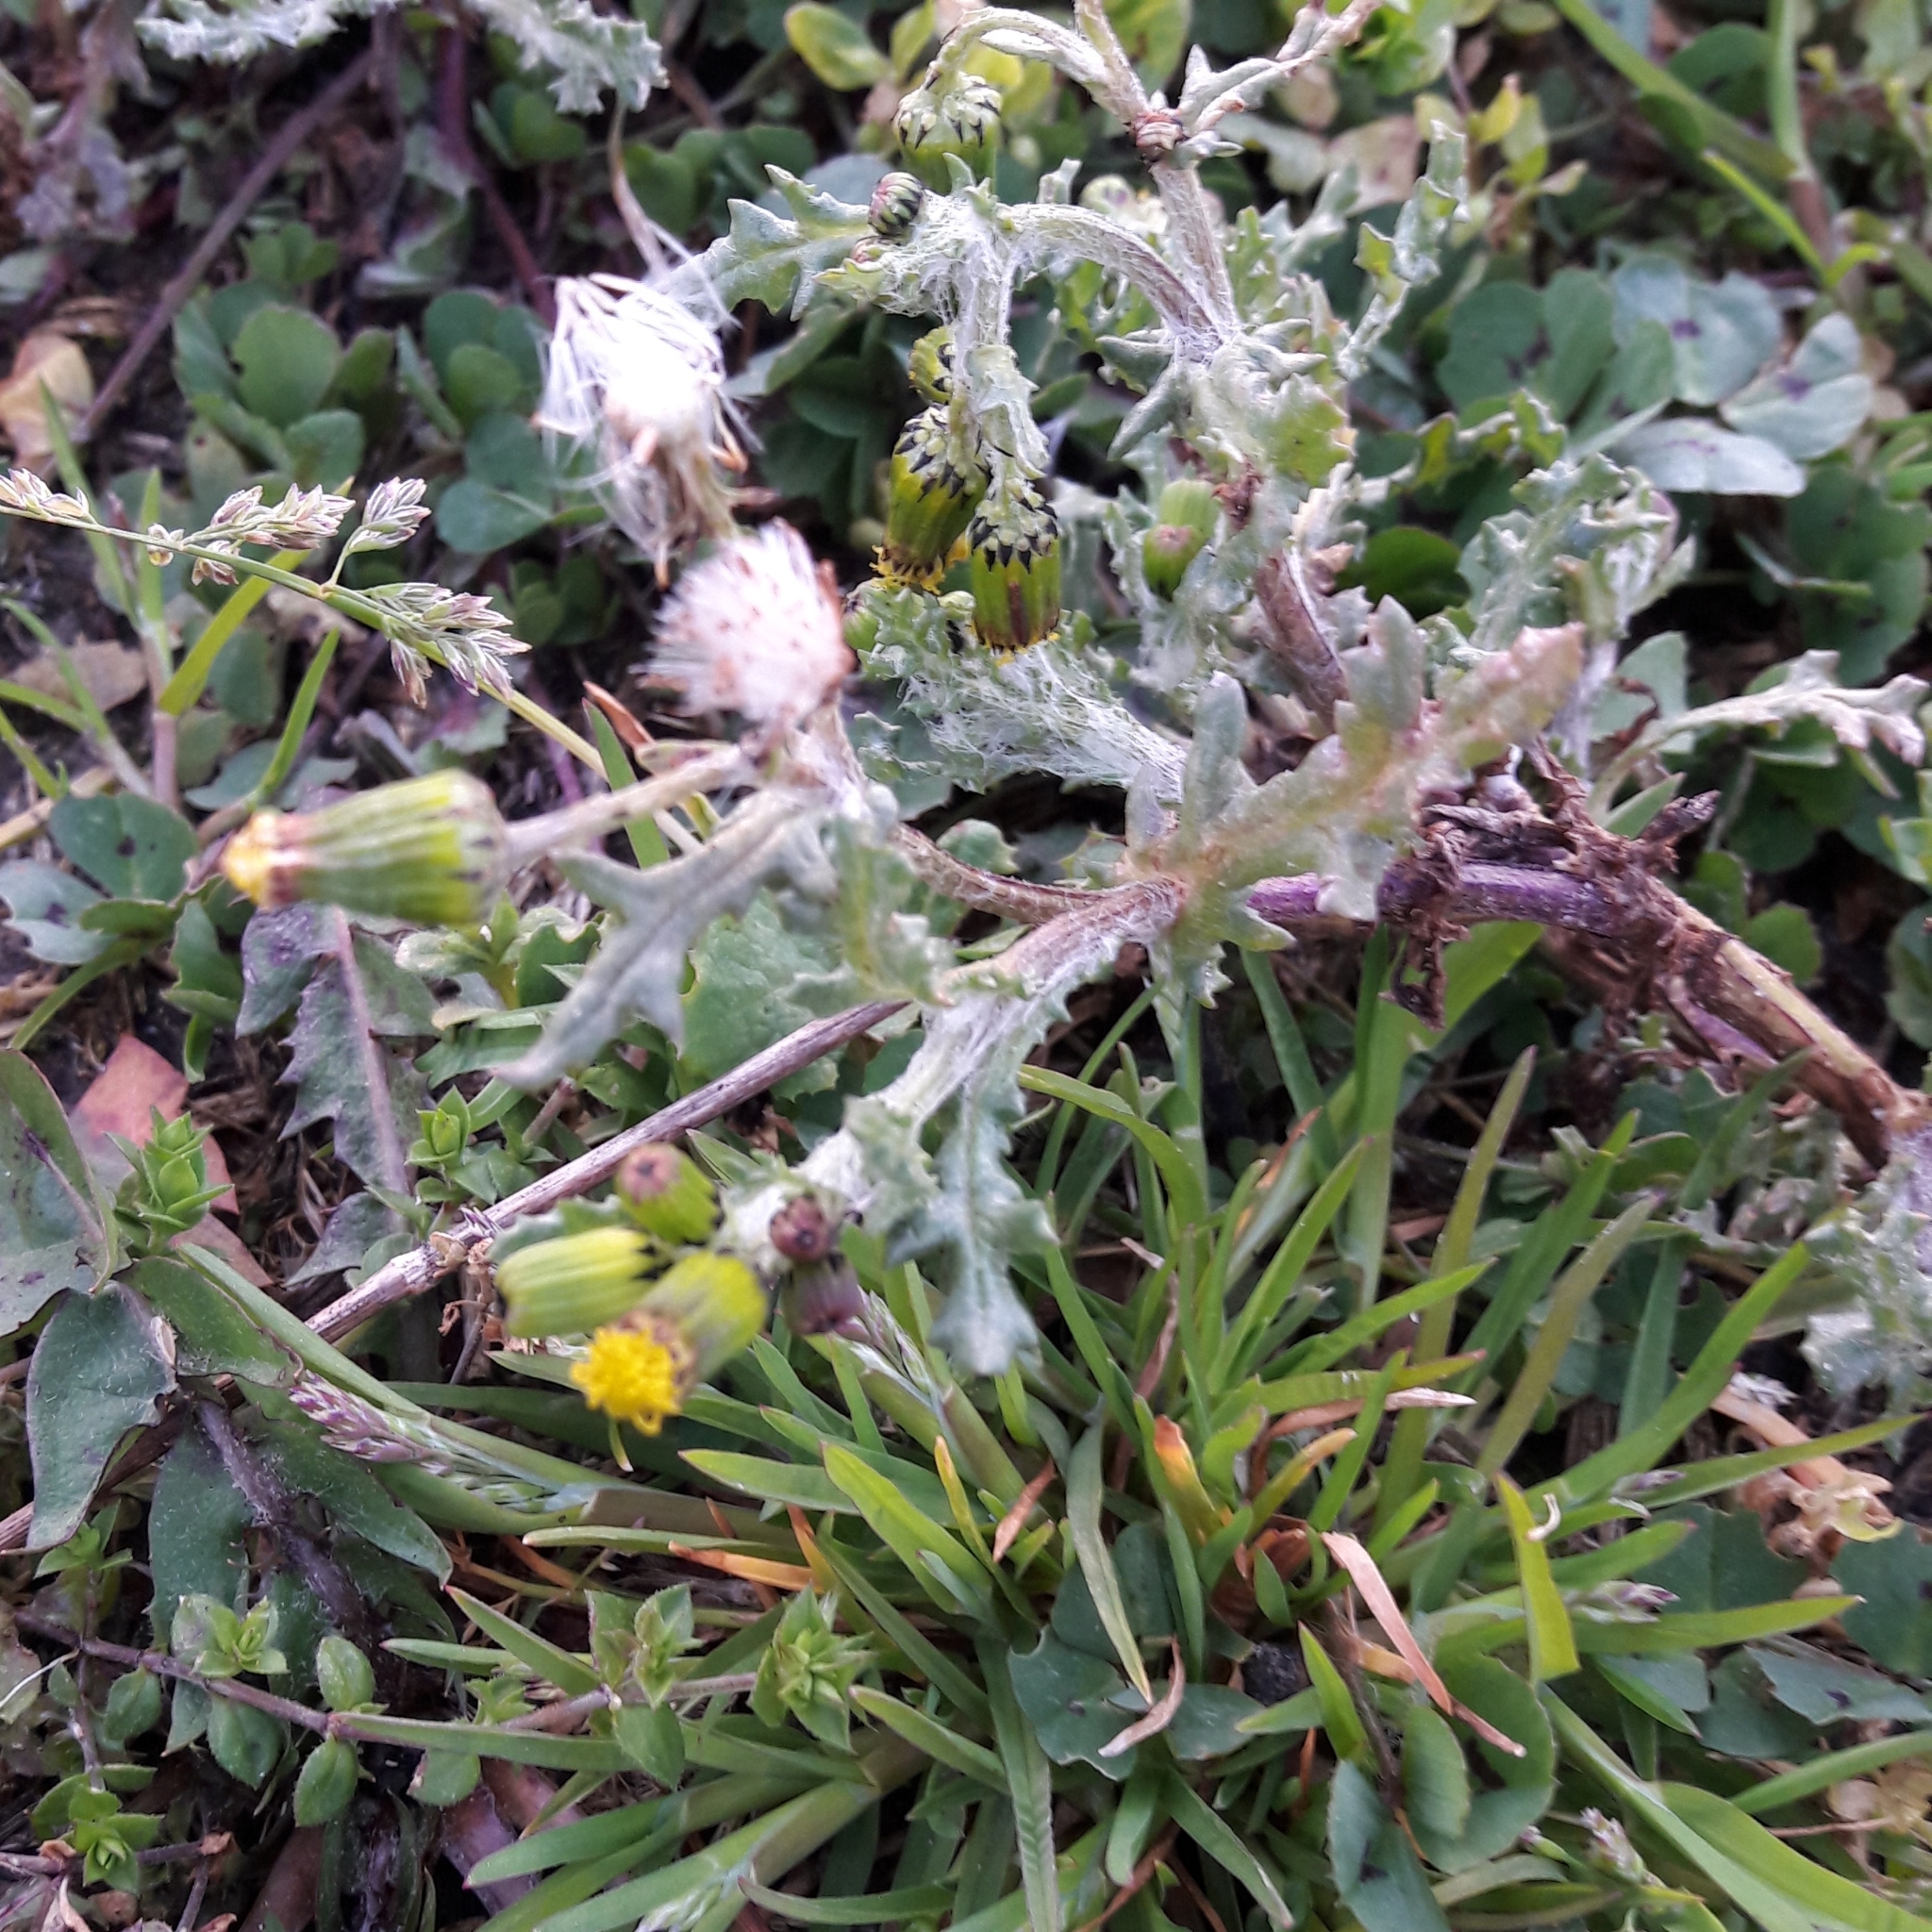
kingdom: Plantae
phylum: Tracheophyta
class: Magnoliopsida
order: Asterales
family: Asteraceae
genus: Senecio
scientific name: Senecio vulgaris
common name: Old-man-in-the-spring
